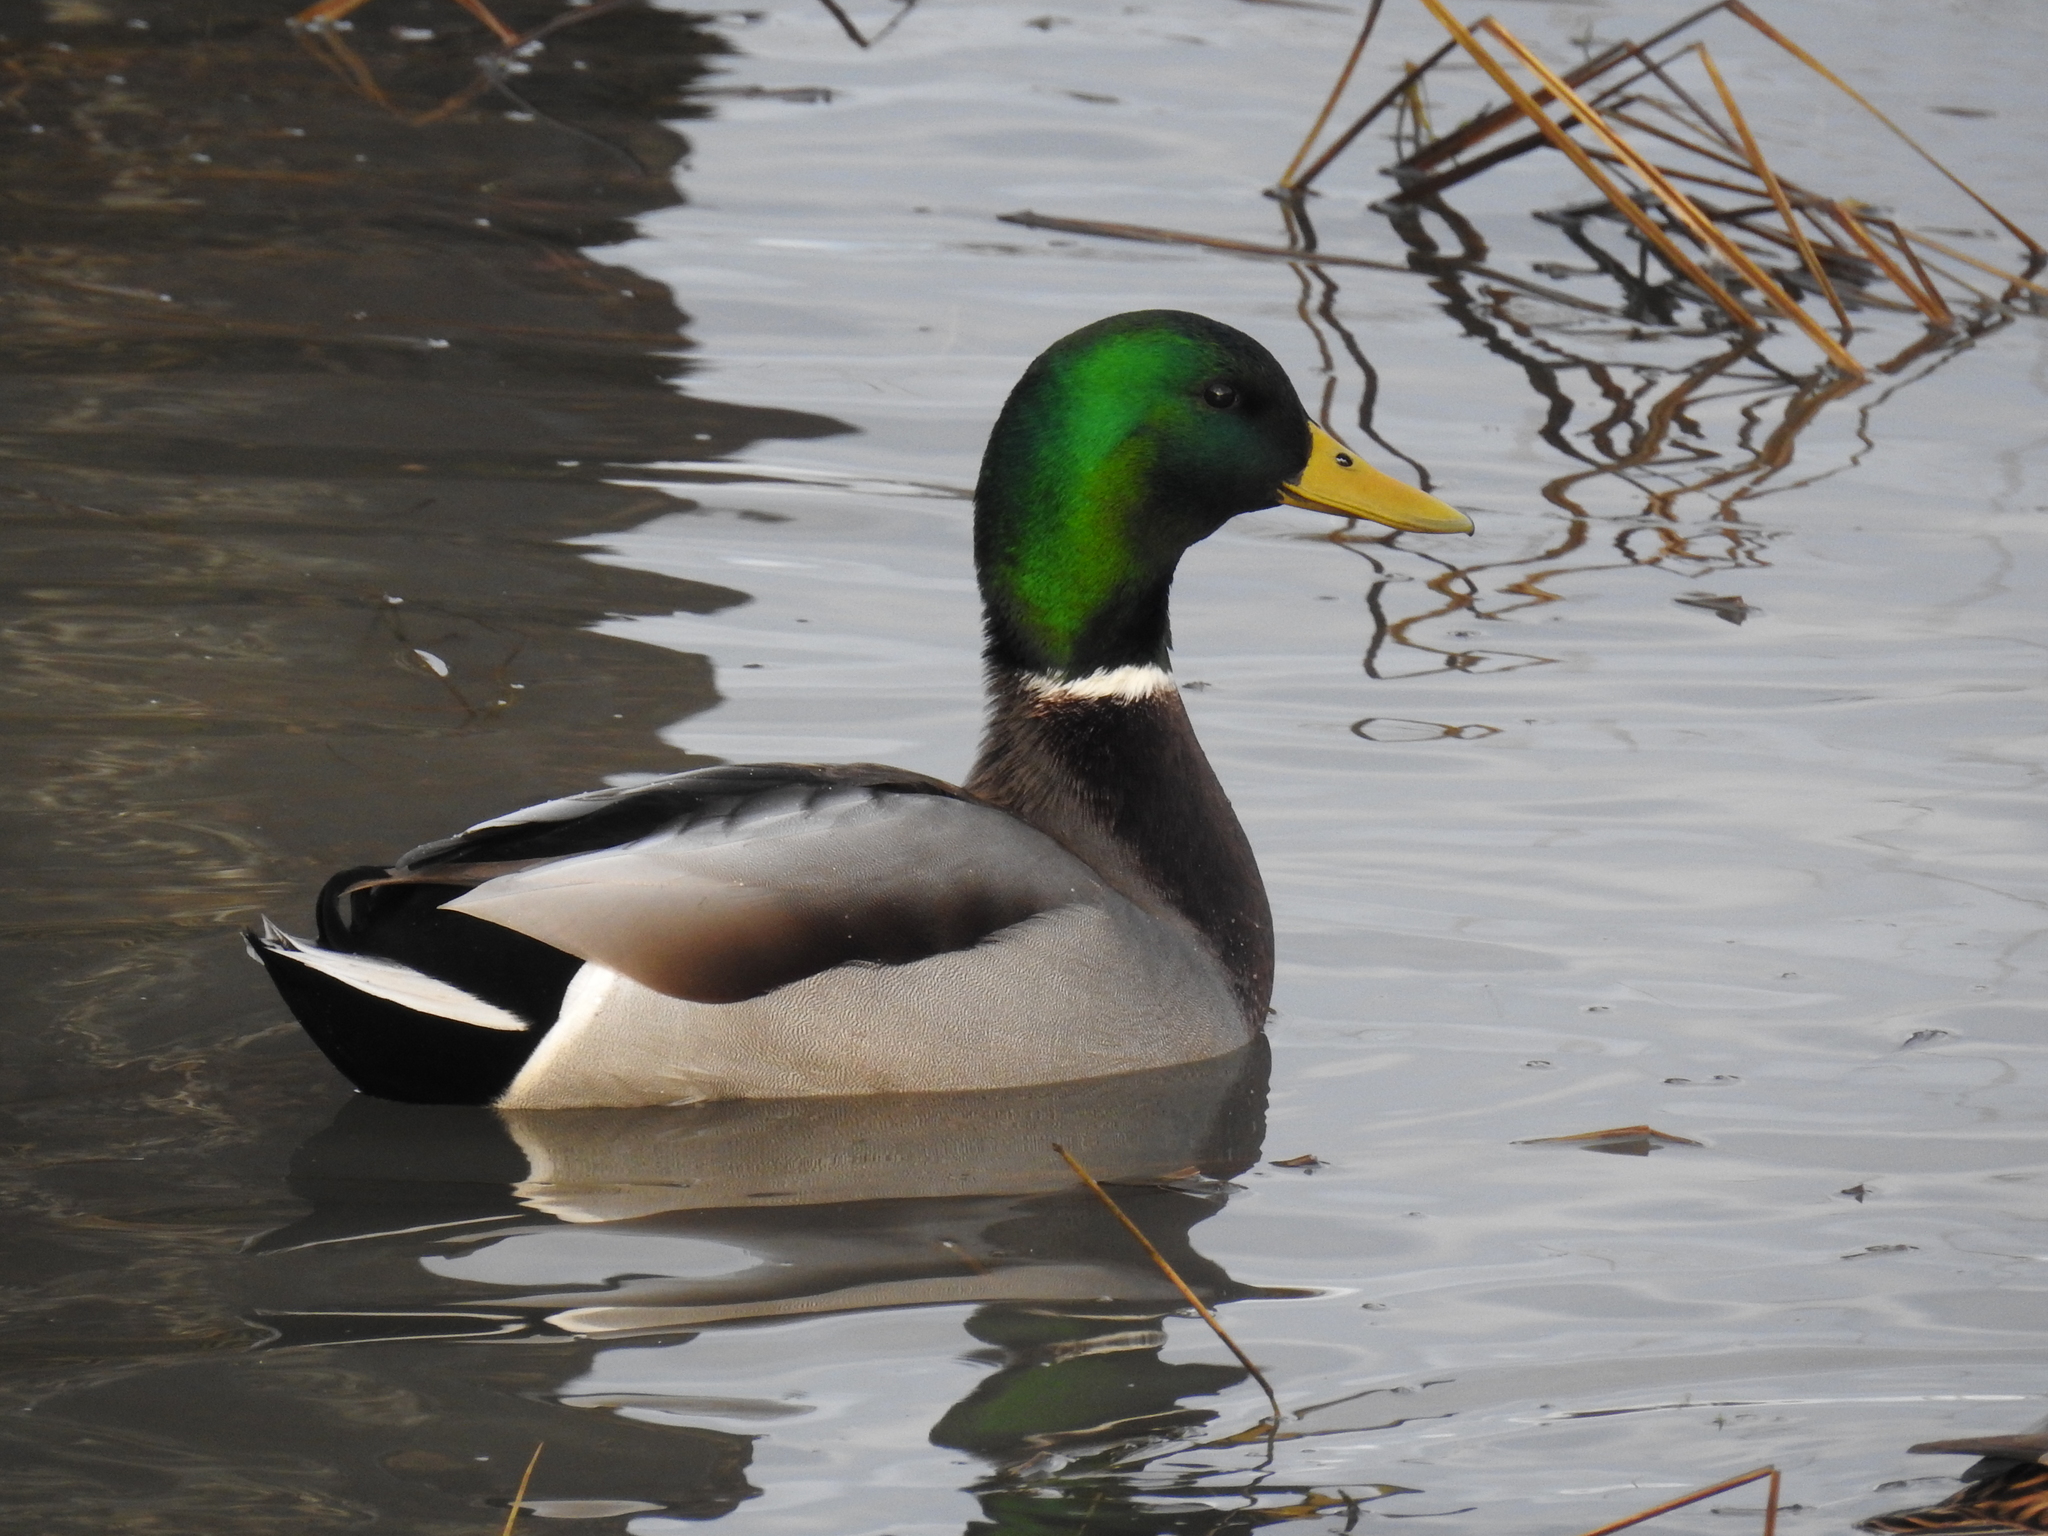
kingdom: Animalia
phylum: Chordata
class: Aves
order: Anseriformes
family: Anatidae
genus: Anas
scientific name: Anas platyrhynchos
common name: Mallard
